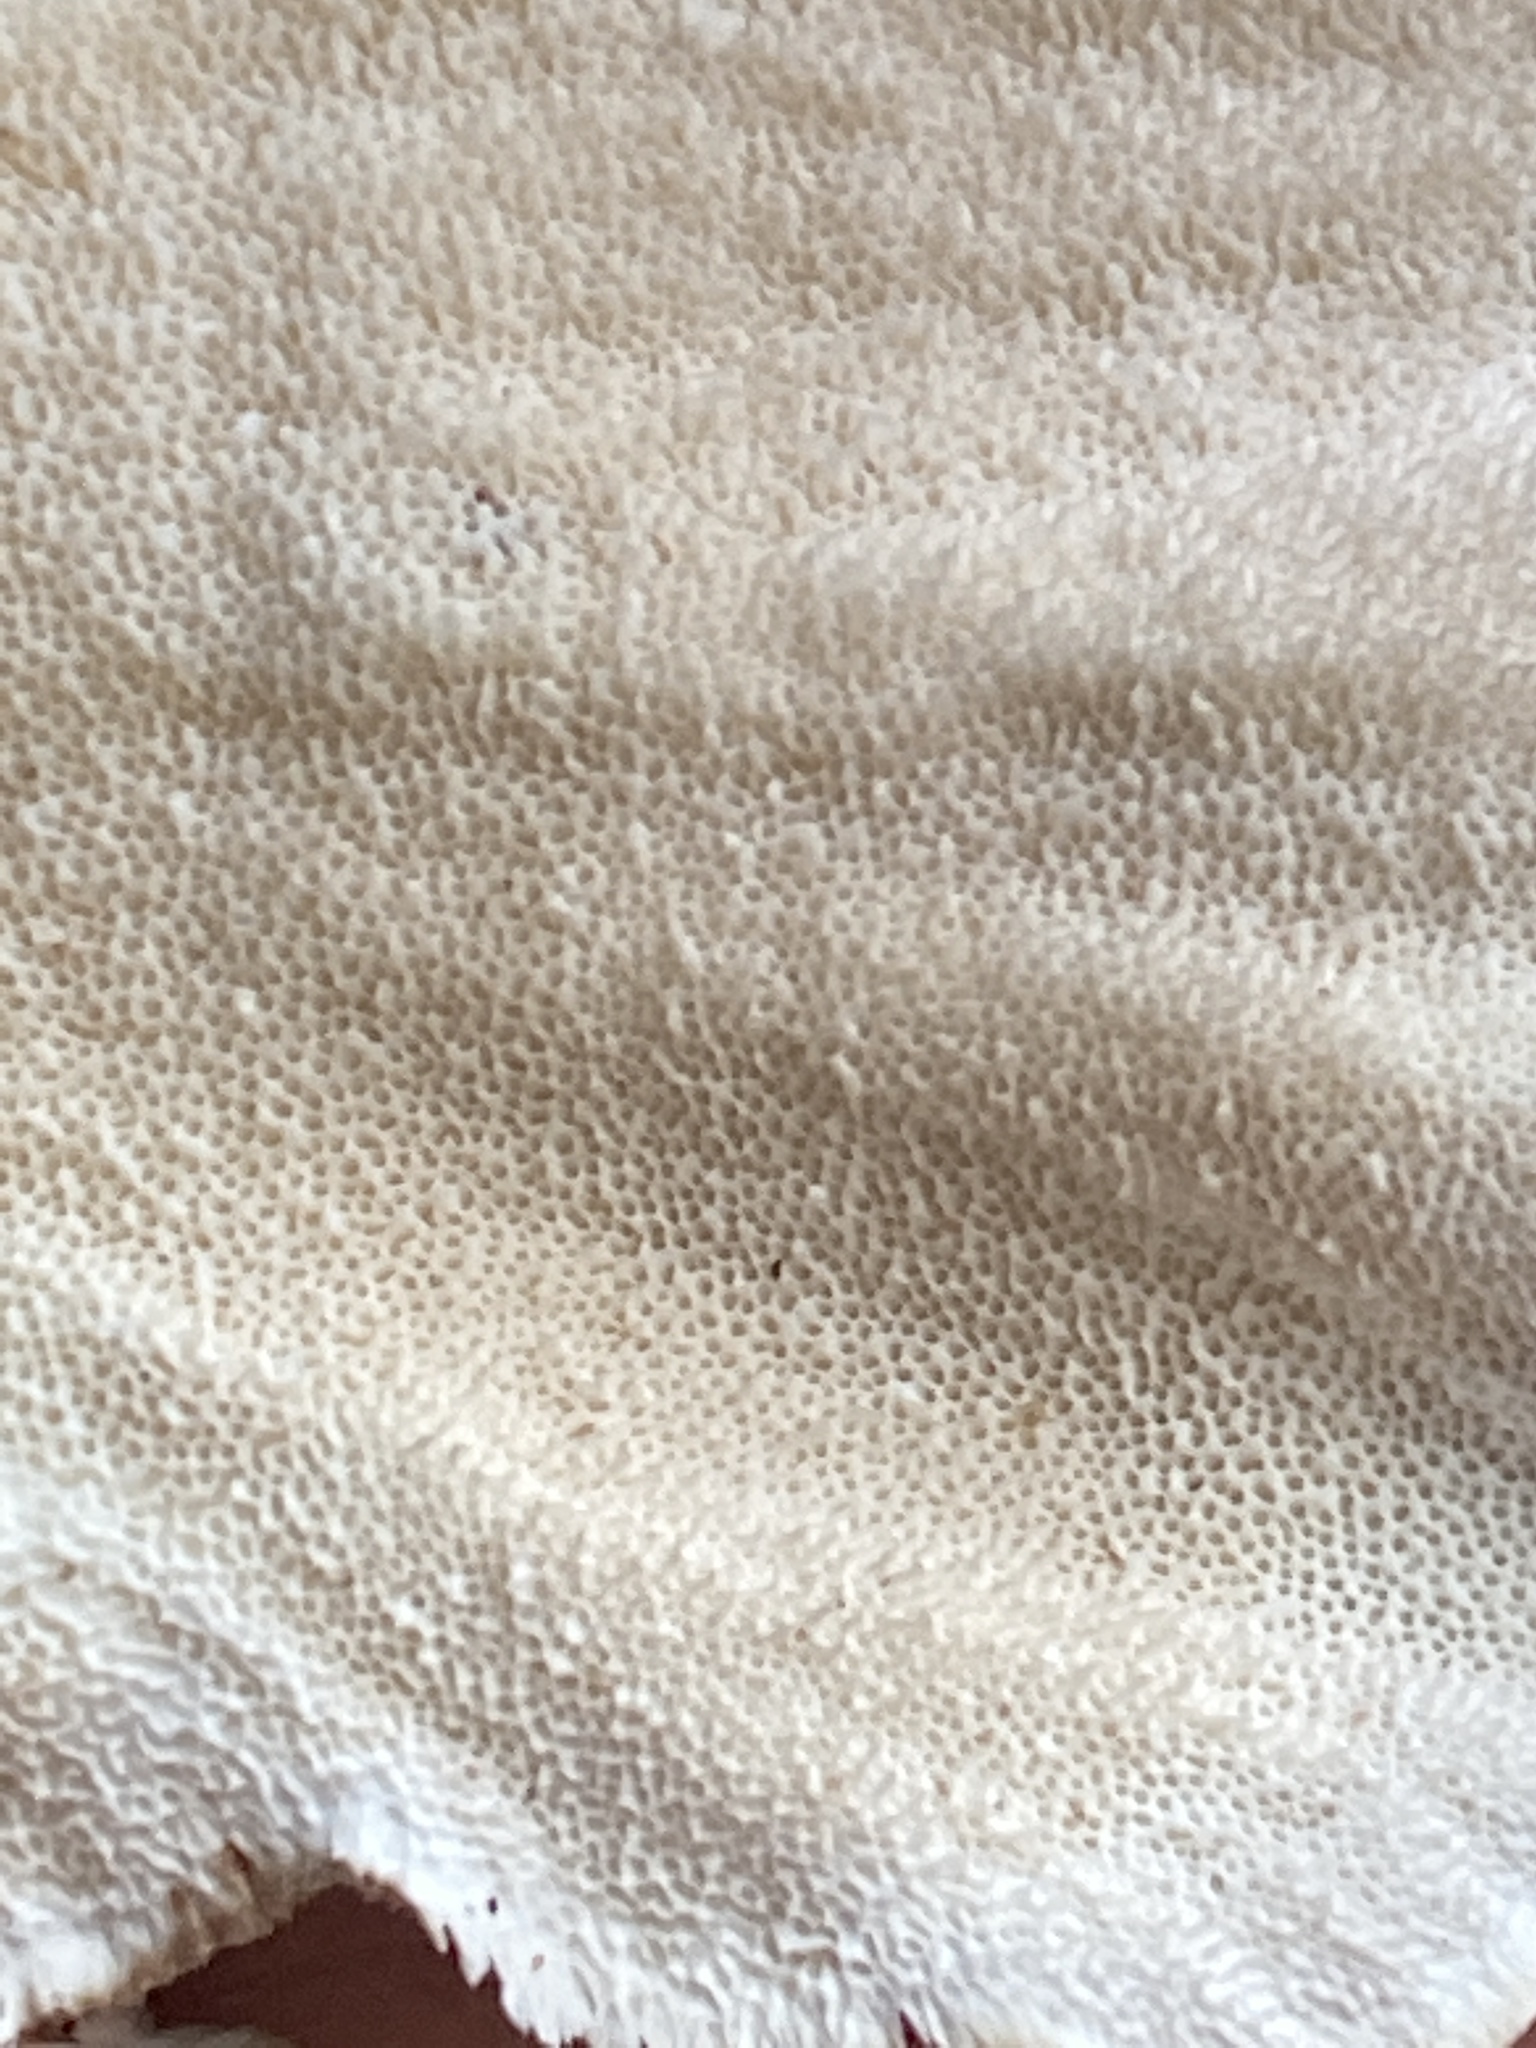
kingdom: Fungi
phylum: Basidiomycota
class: Agaricomycetes
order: Polyporales
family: Polyporaceae
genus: Trametes
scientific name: Trametes versicolor
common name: Turkeytail
